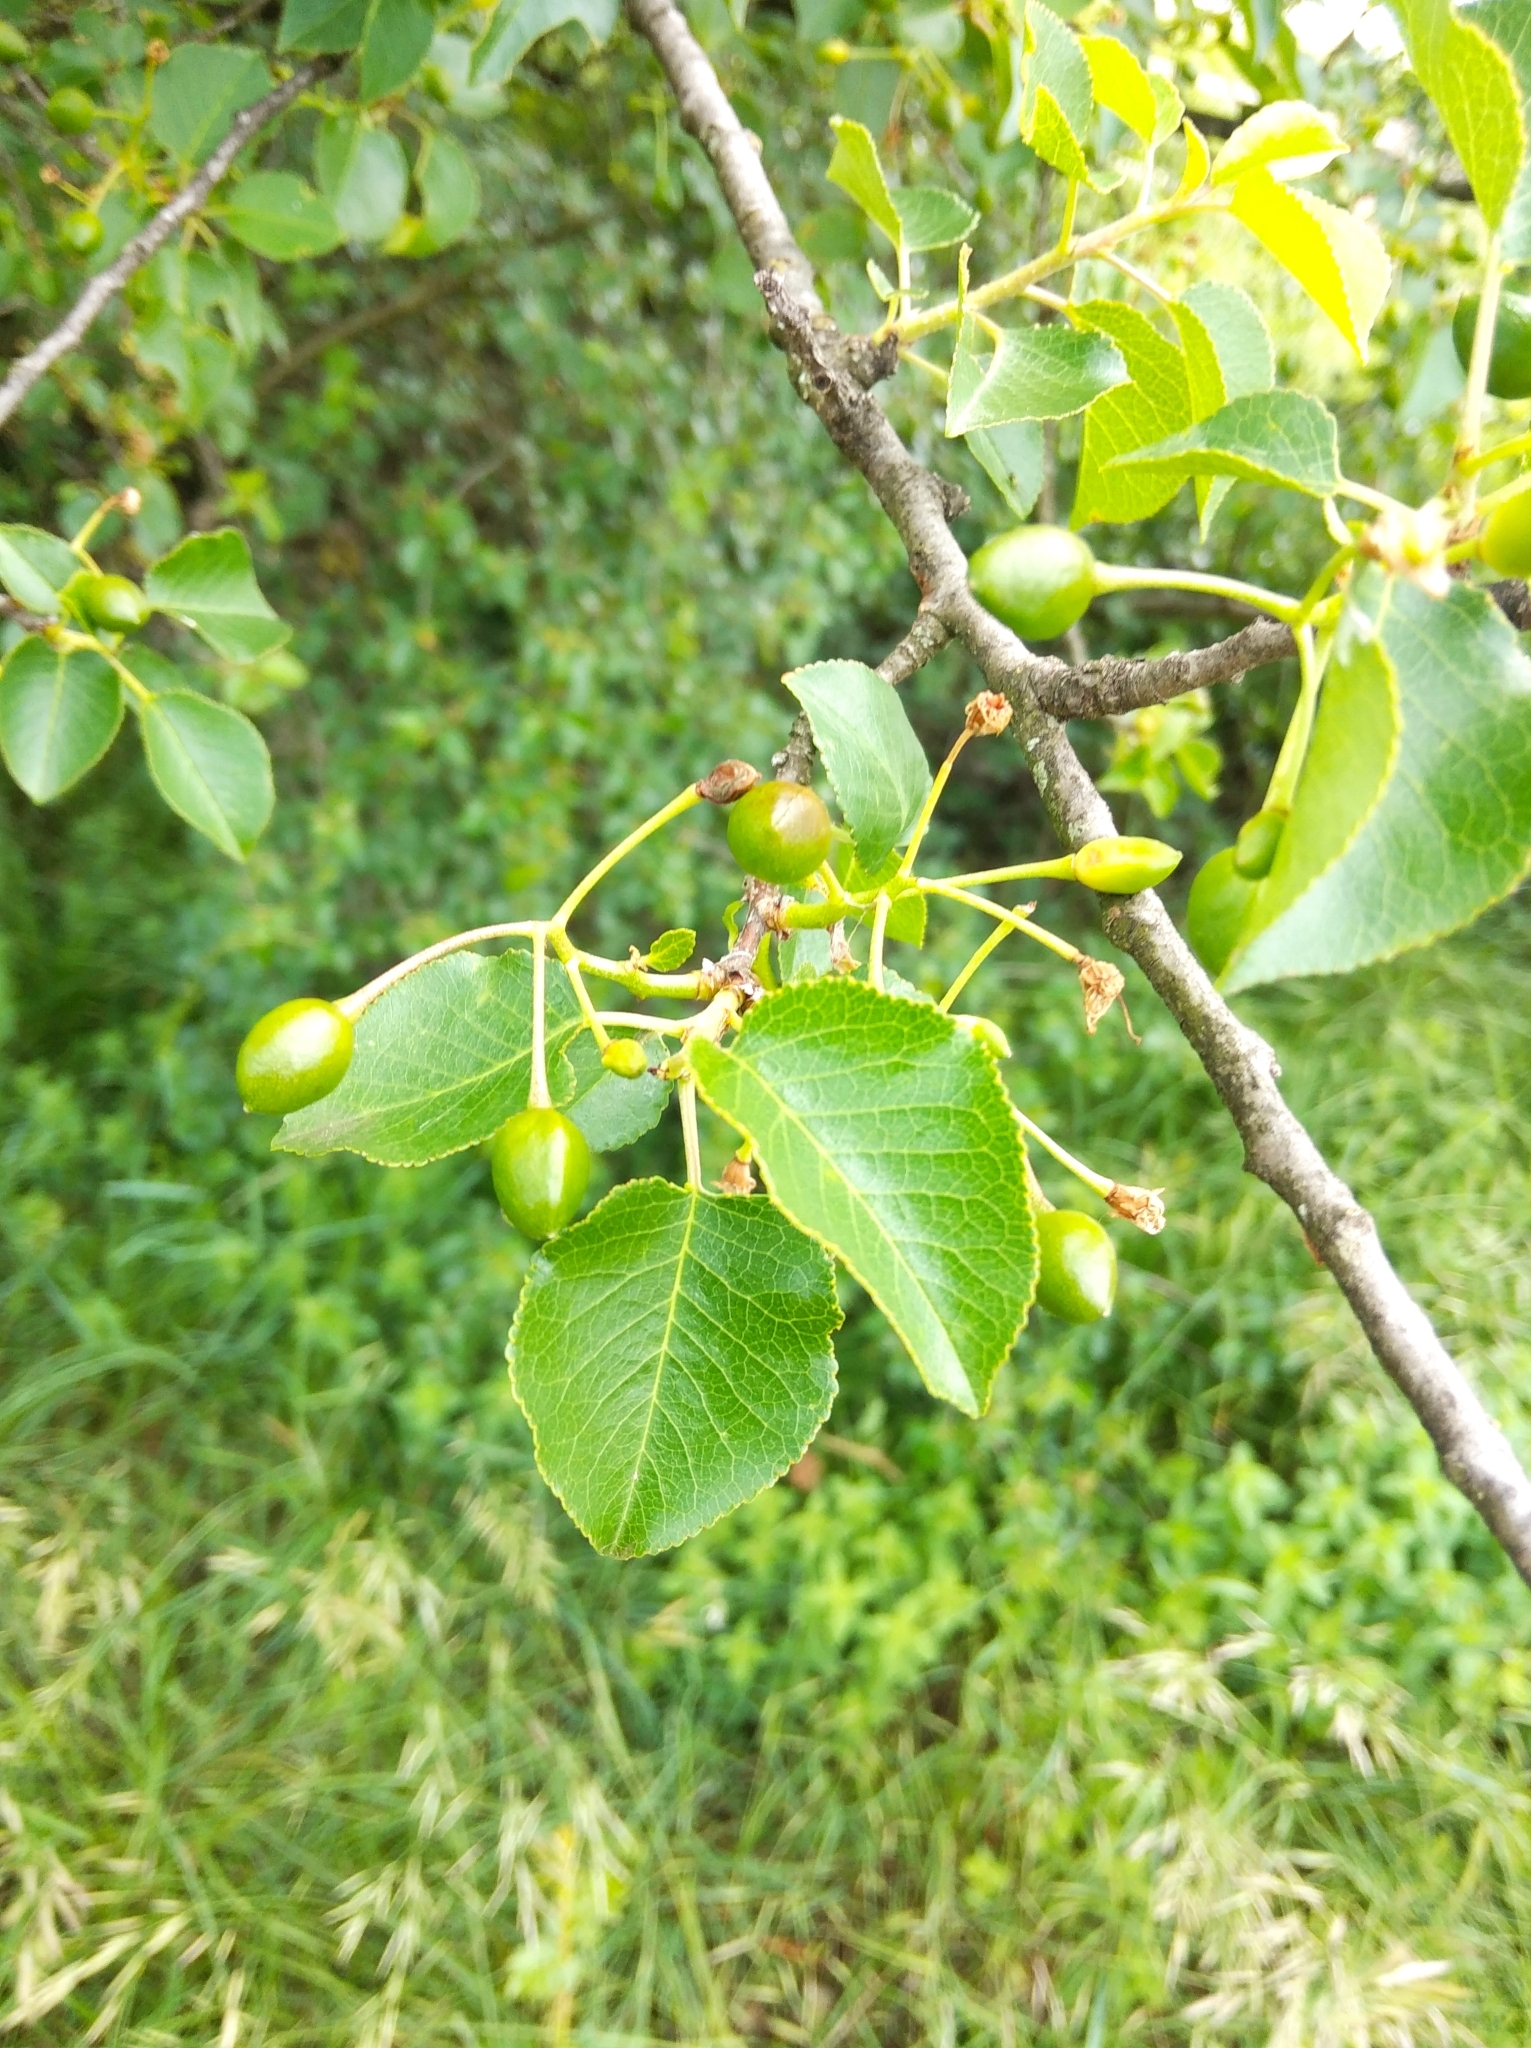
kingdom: Plantae
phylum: Tracheophyta
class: Magnoliopsida
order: Rosales
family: Rosaceae
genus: Prunus
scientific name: Prunus mahaleb
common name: Mahaleb cherry
